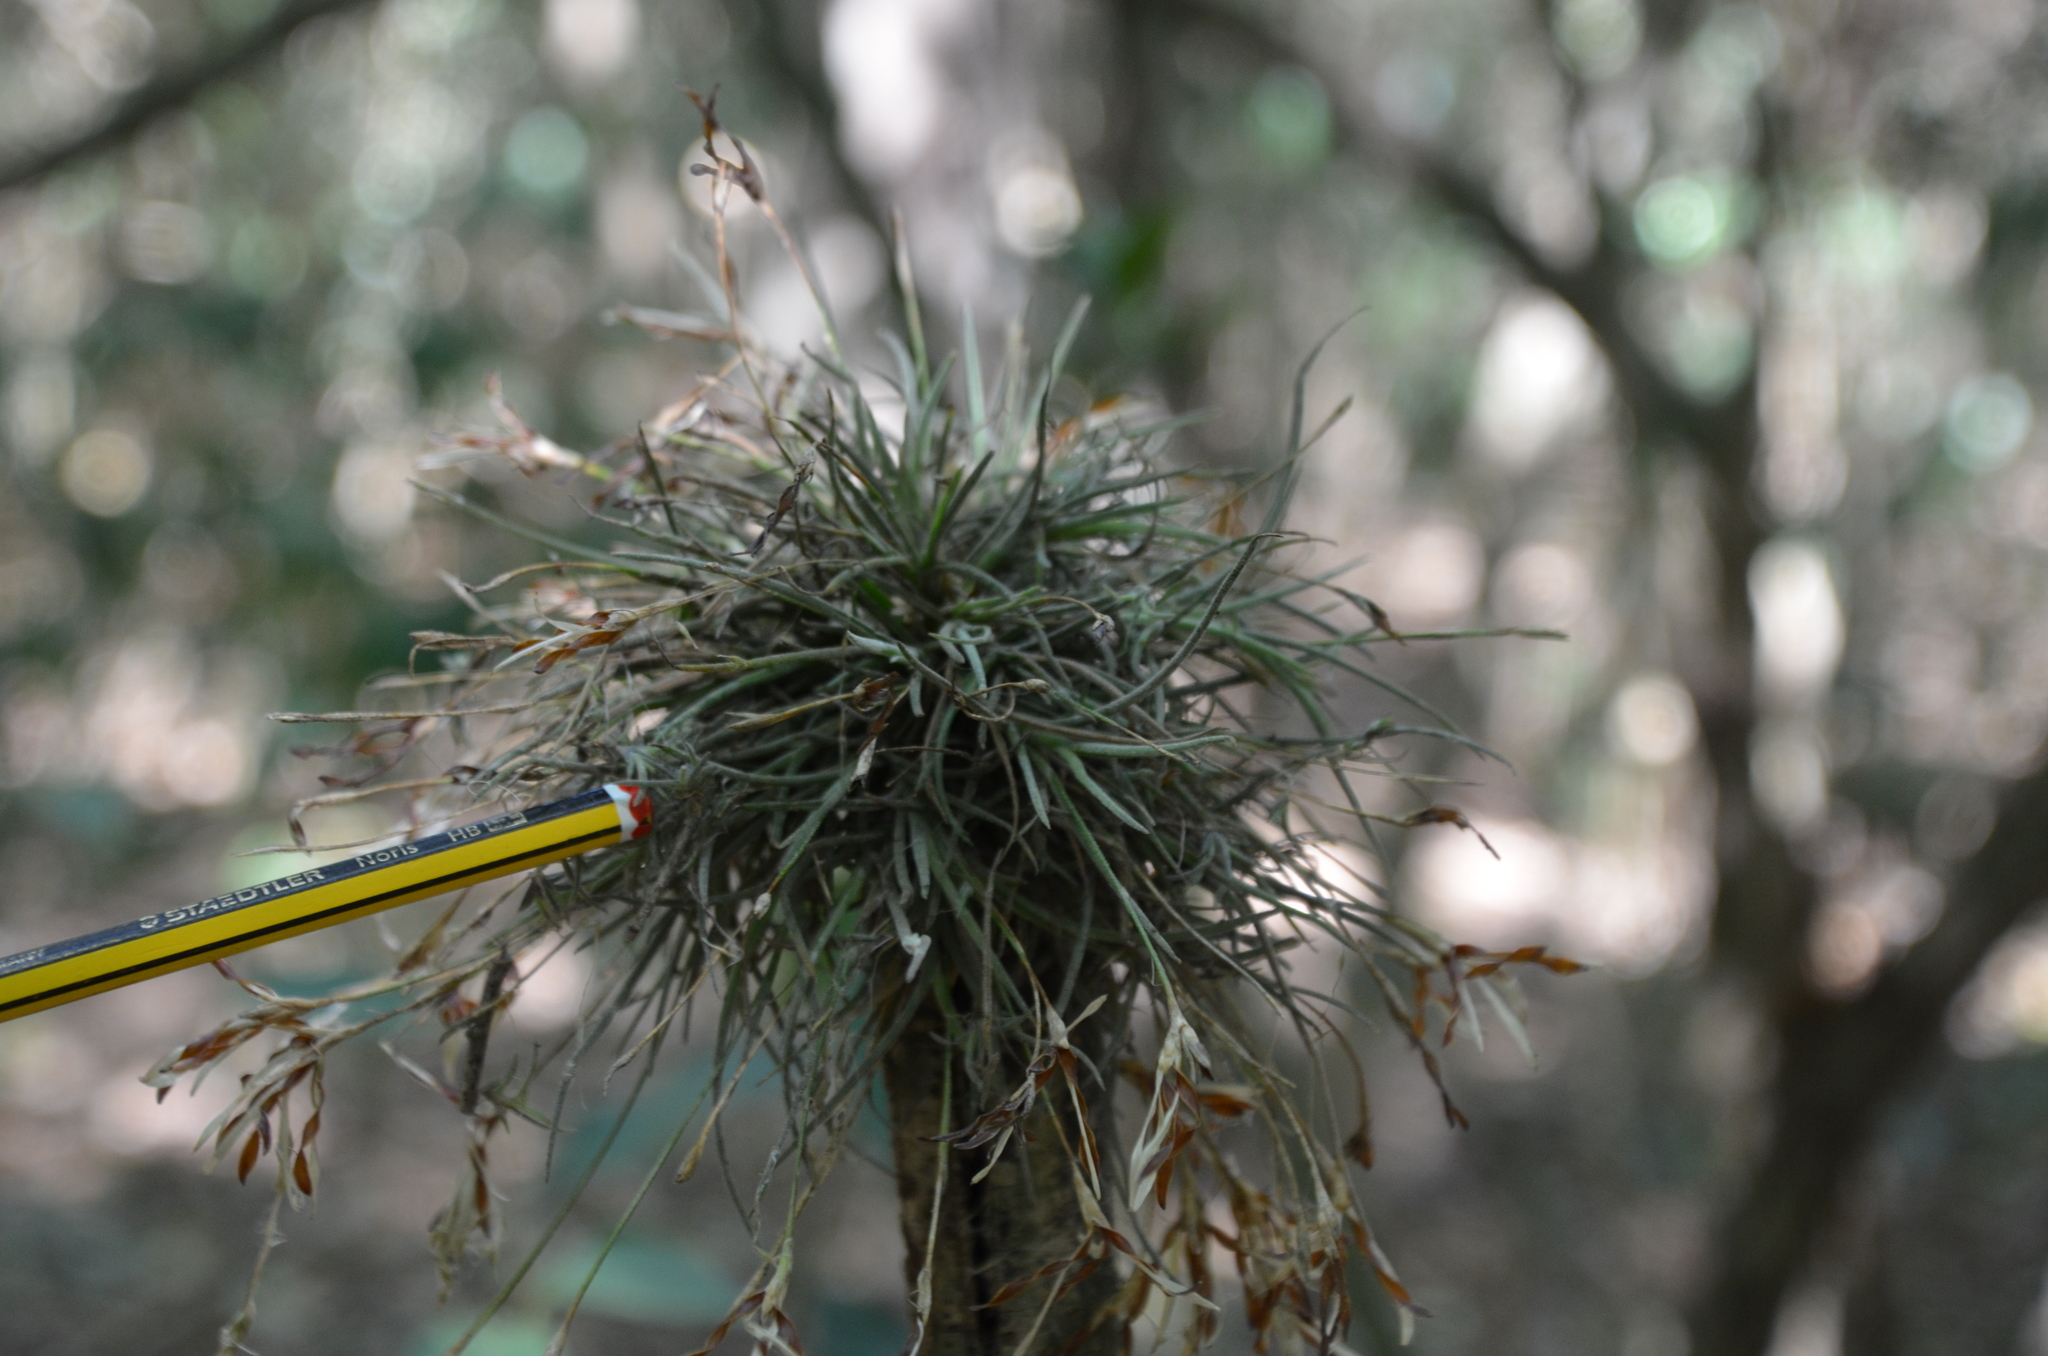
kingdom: Plantae
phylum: Tracheophyta
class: Liliopsida
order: Poales
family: Bromeliaceae
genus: Tillandsia
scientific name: Tillandsia recurvata
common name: Small ballmoss
